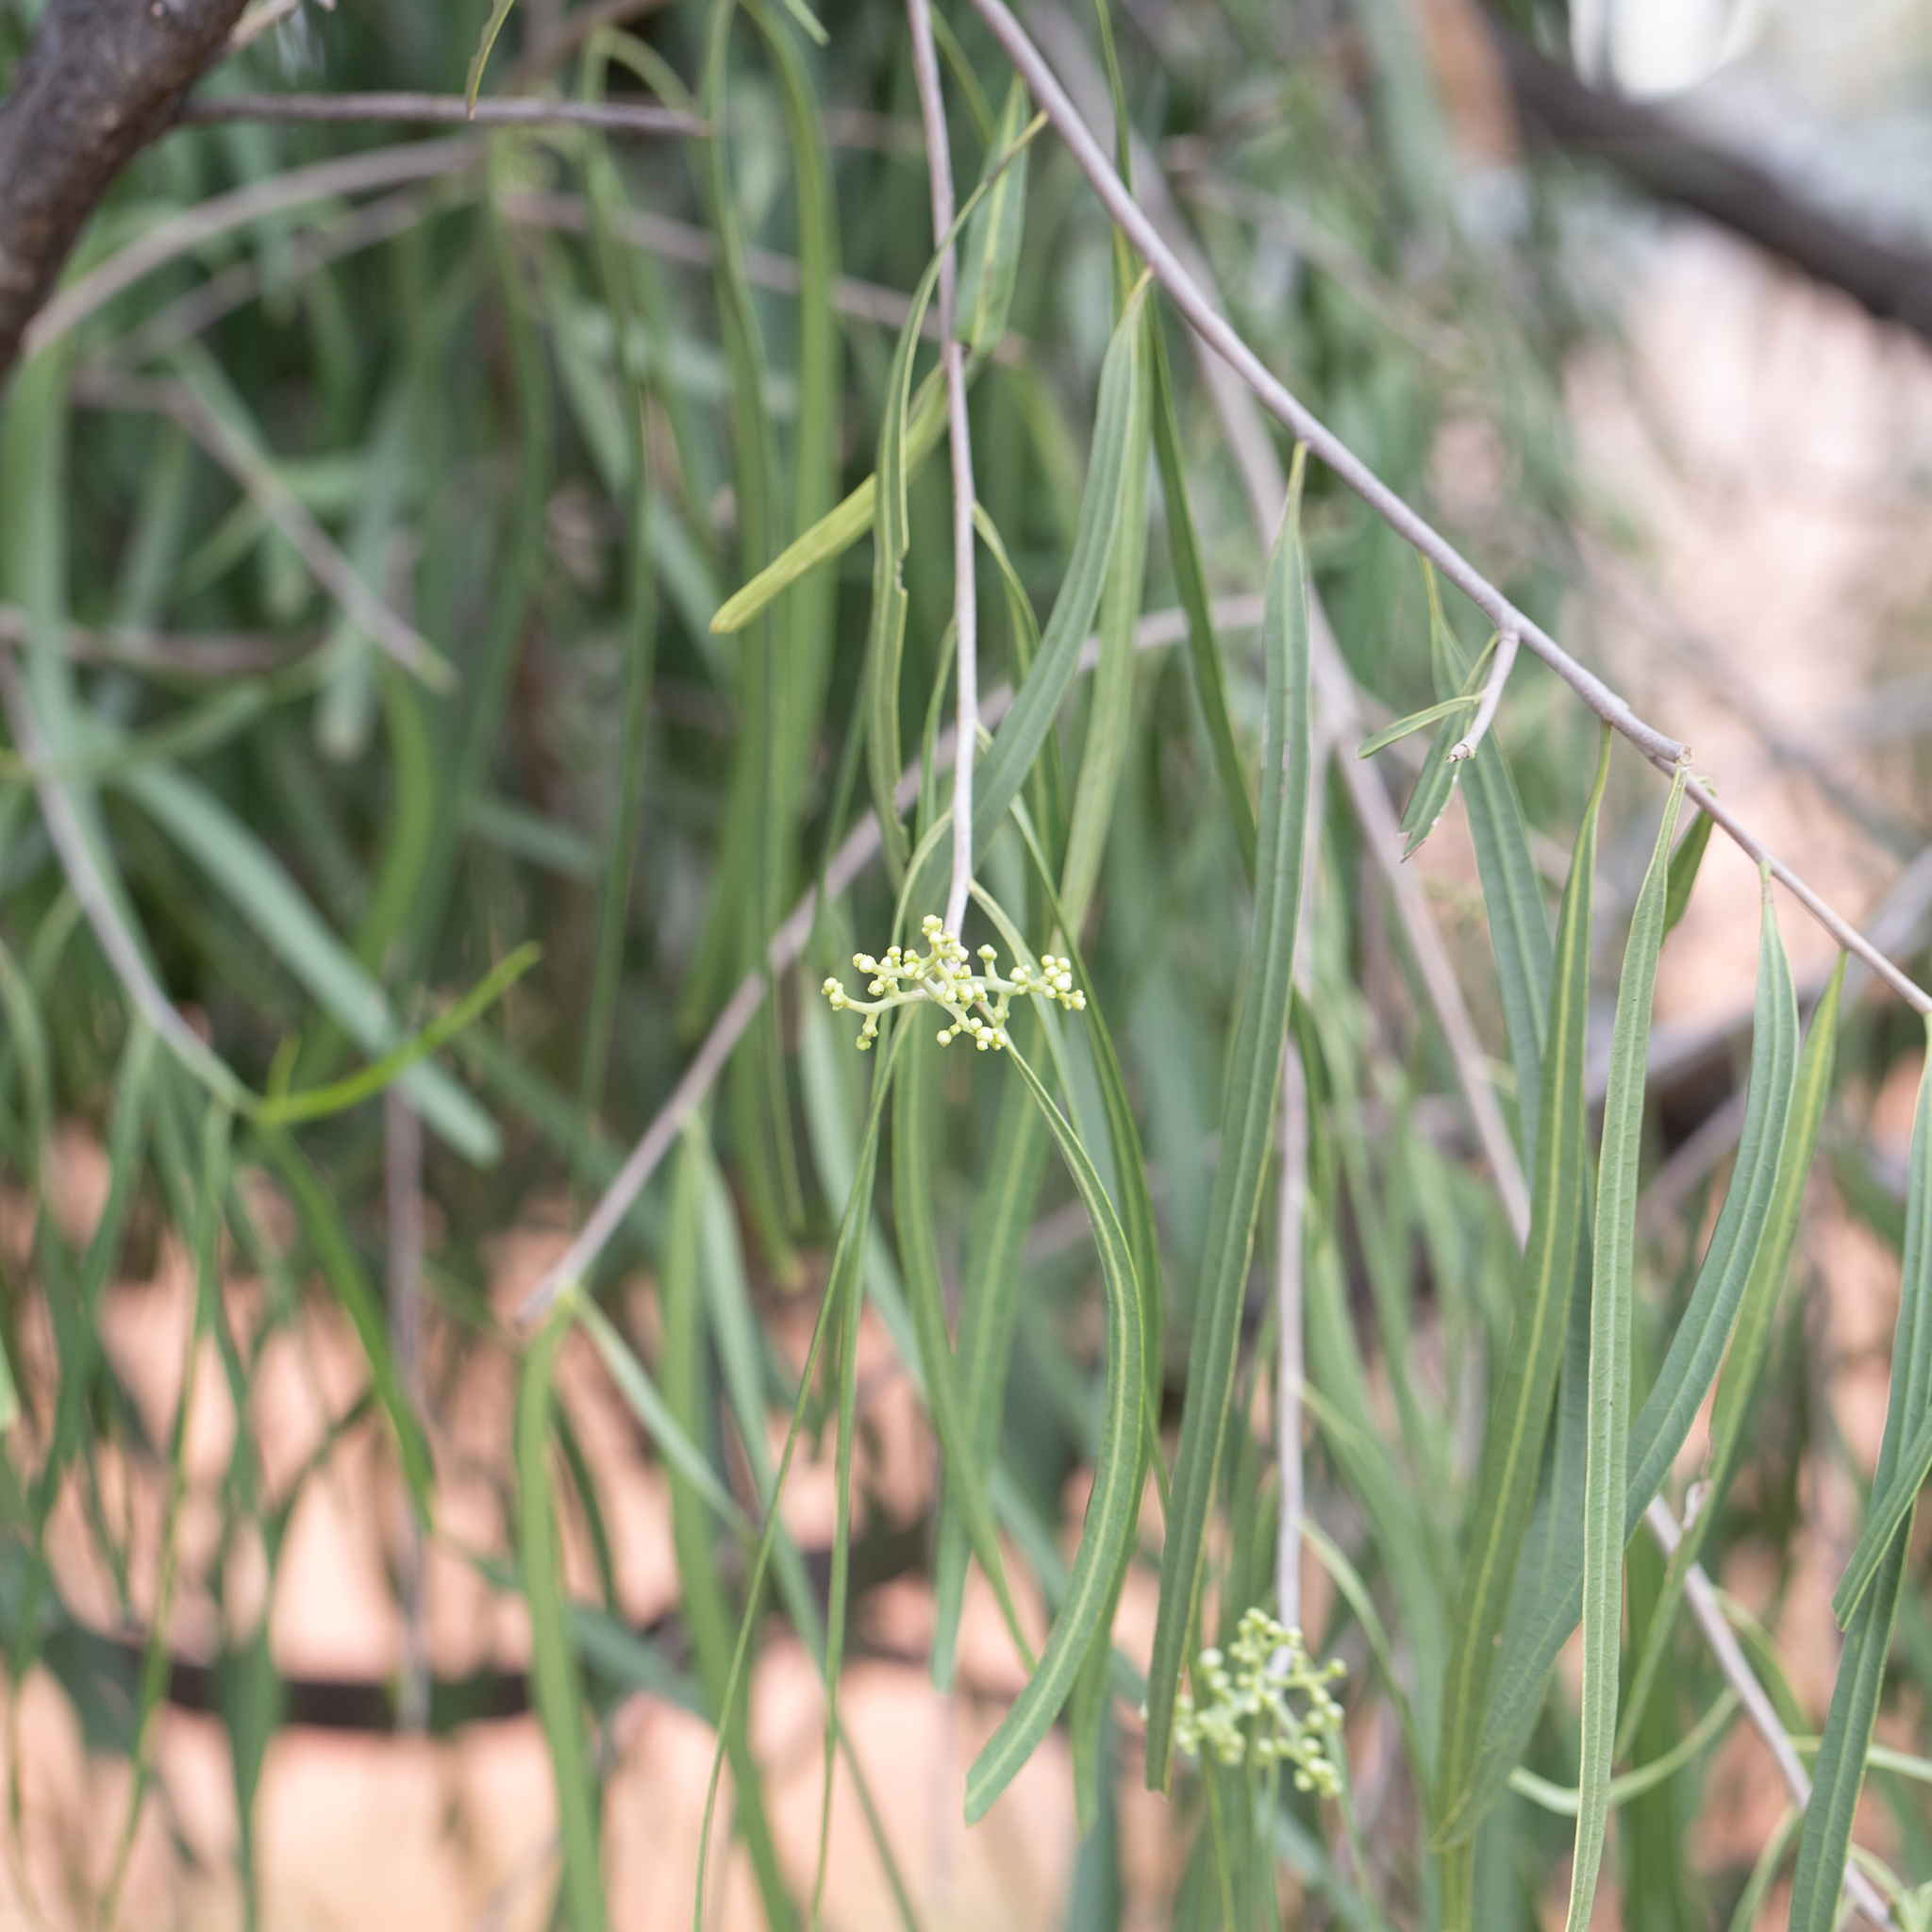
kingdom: Plantae
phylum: Tracheophyta
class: Magnoliopsida
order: Sapindales
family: Rutaceae
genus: Geijera
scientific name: Geijera parviflora
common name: Wilga
